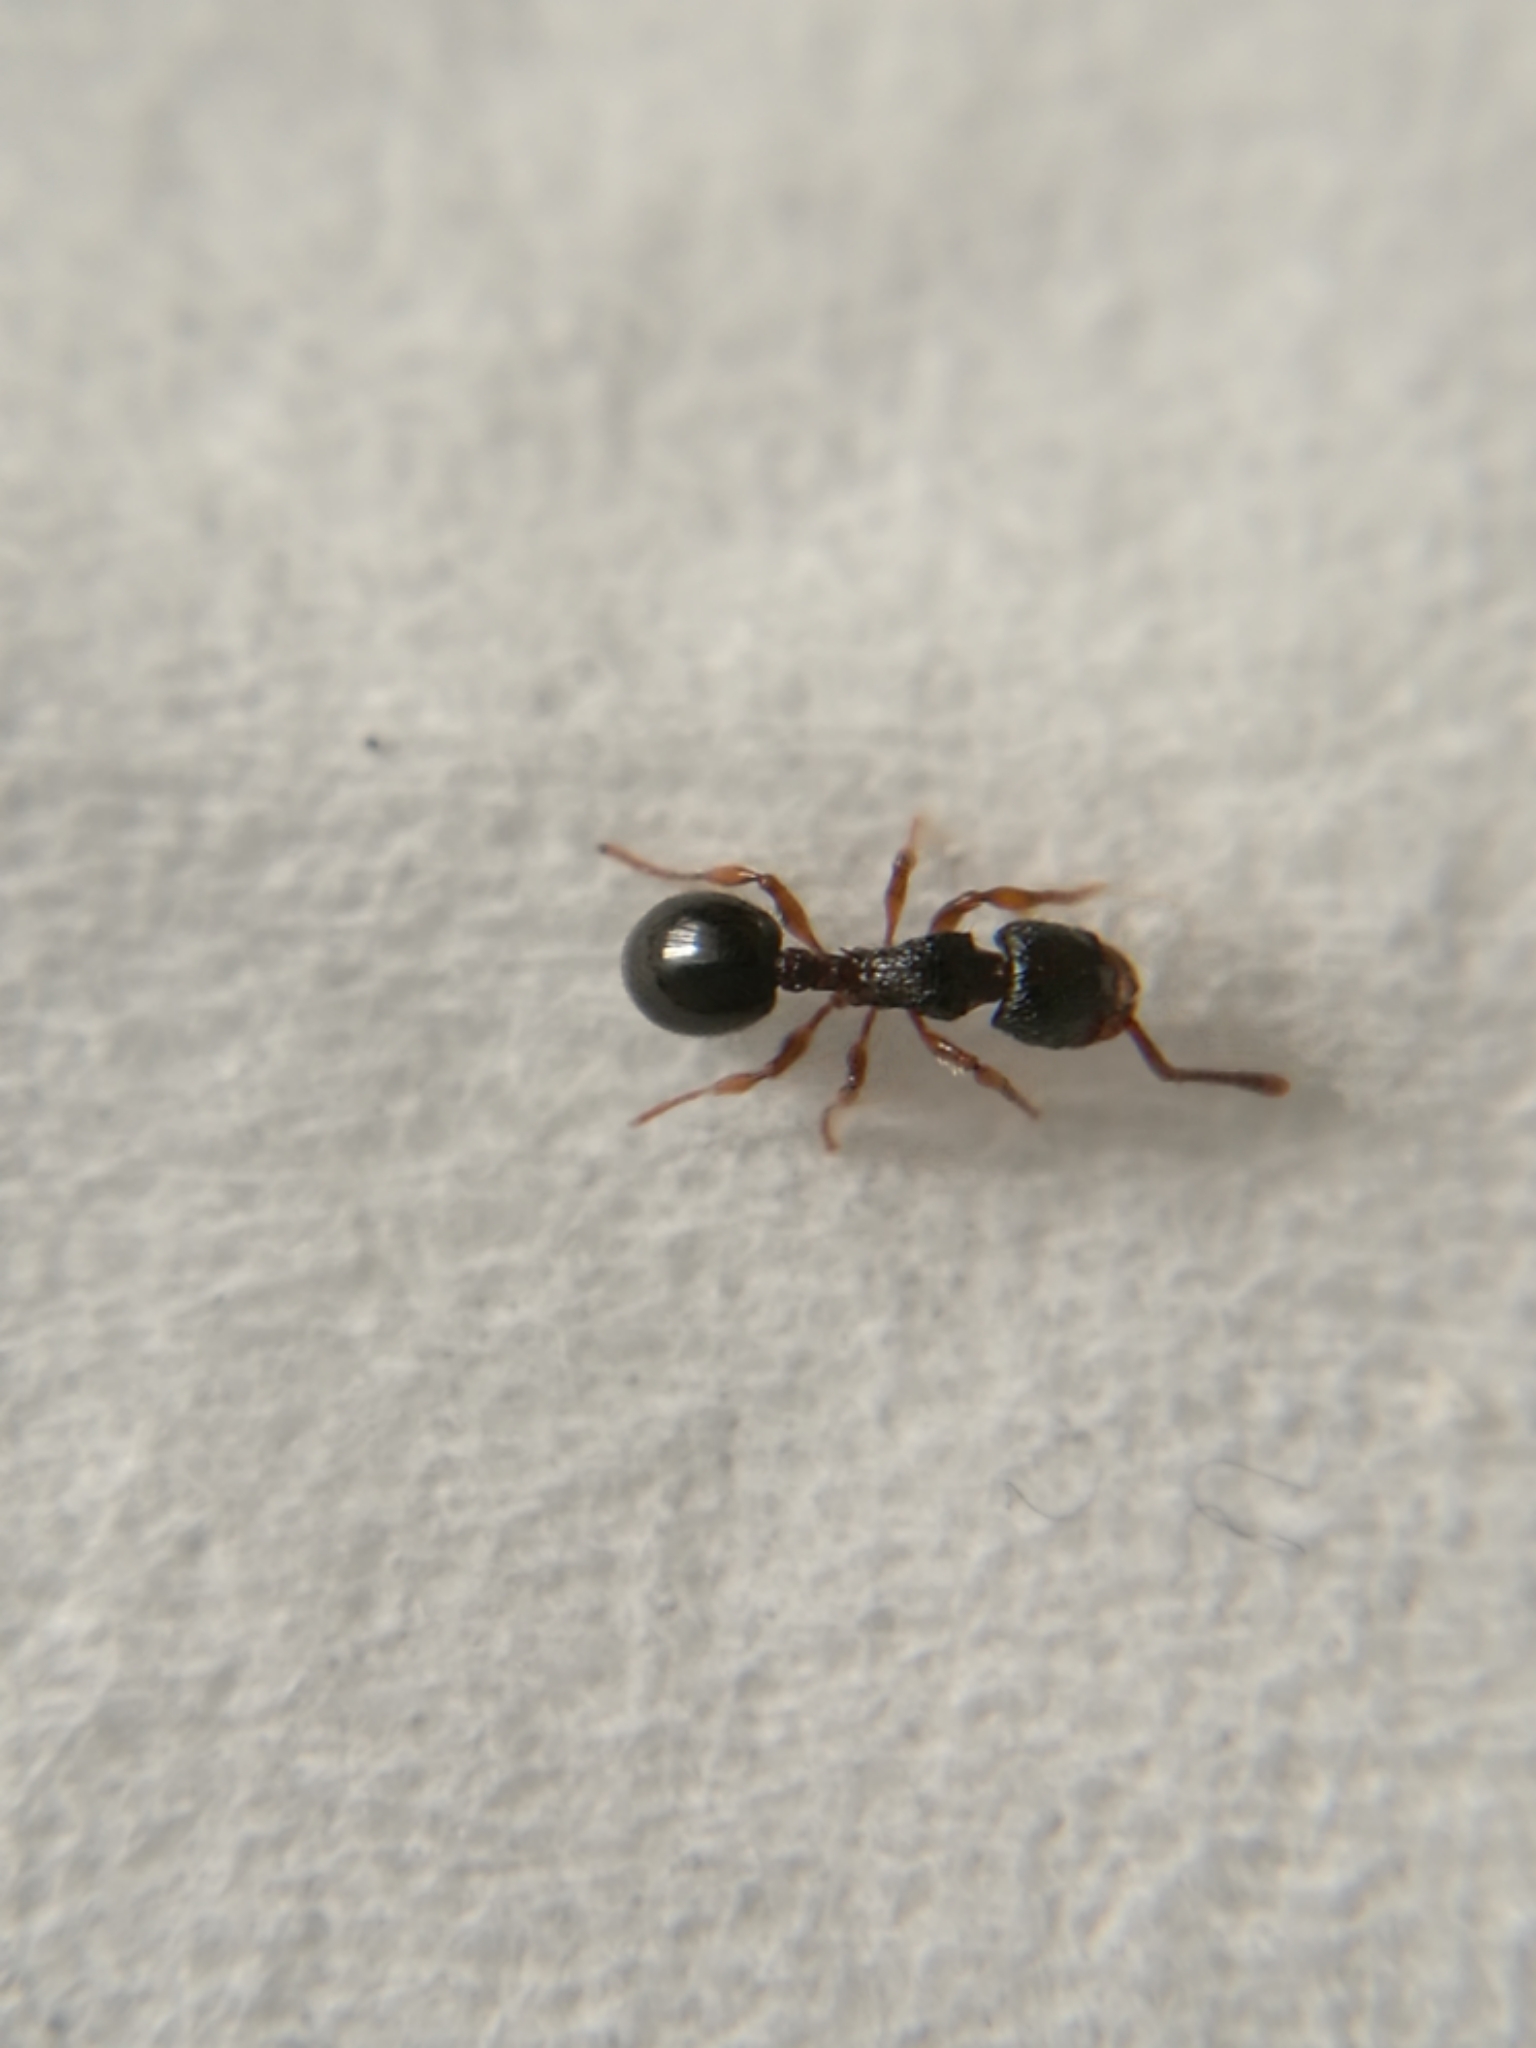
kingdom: Animalia
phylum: Arthropoda
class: Insecta
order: Hymenoptera
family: Formicidae
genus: Myrmecina
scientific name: Myrmecina graminicola
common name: Grass ant
